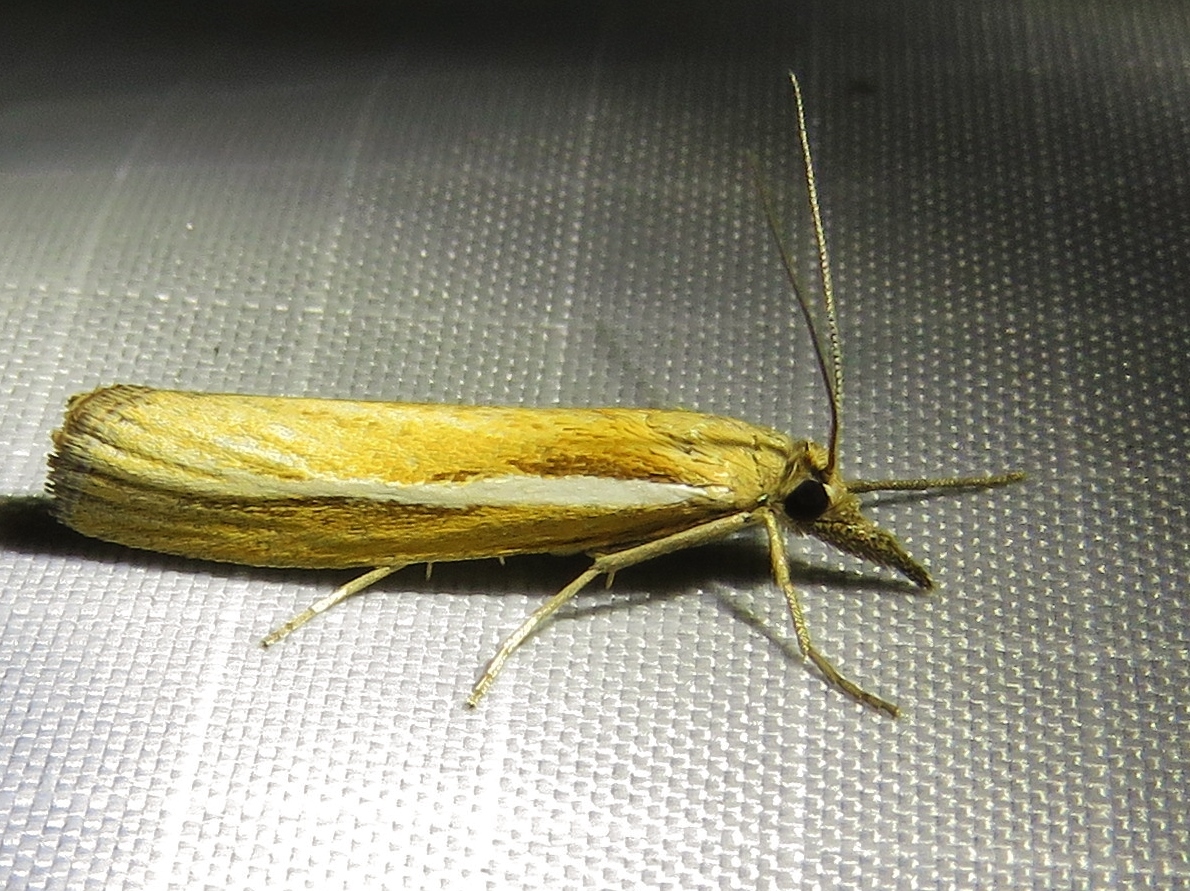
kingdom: Animalia
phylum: Arthropoda
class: Insecta
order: Lepidoptera
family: Crambidae
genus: Agriphila
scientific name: Agriphila tristellus
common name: Common grass-veneer
